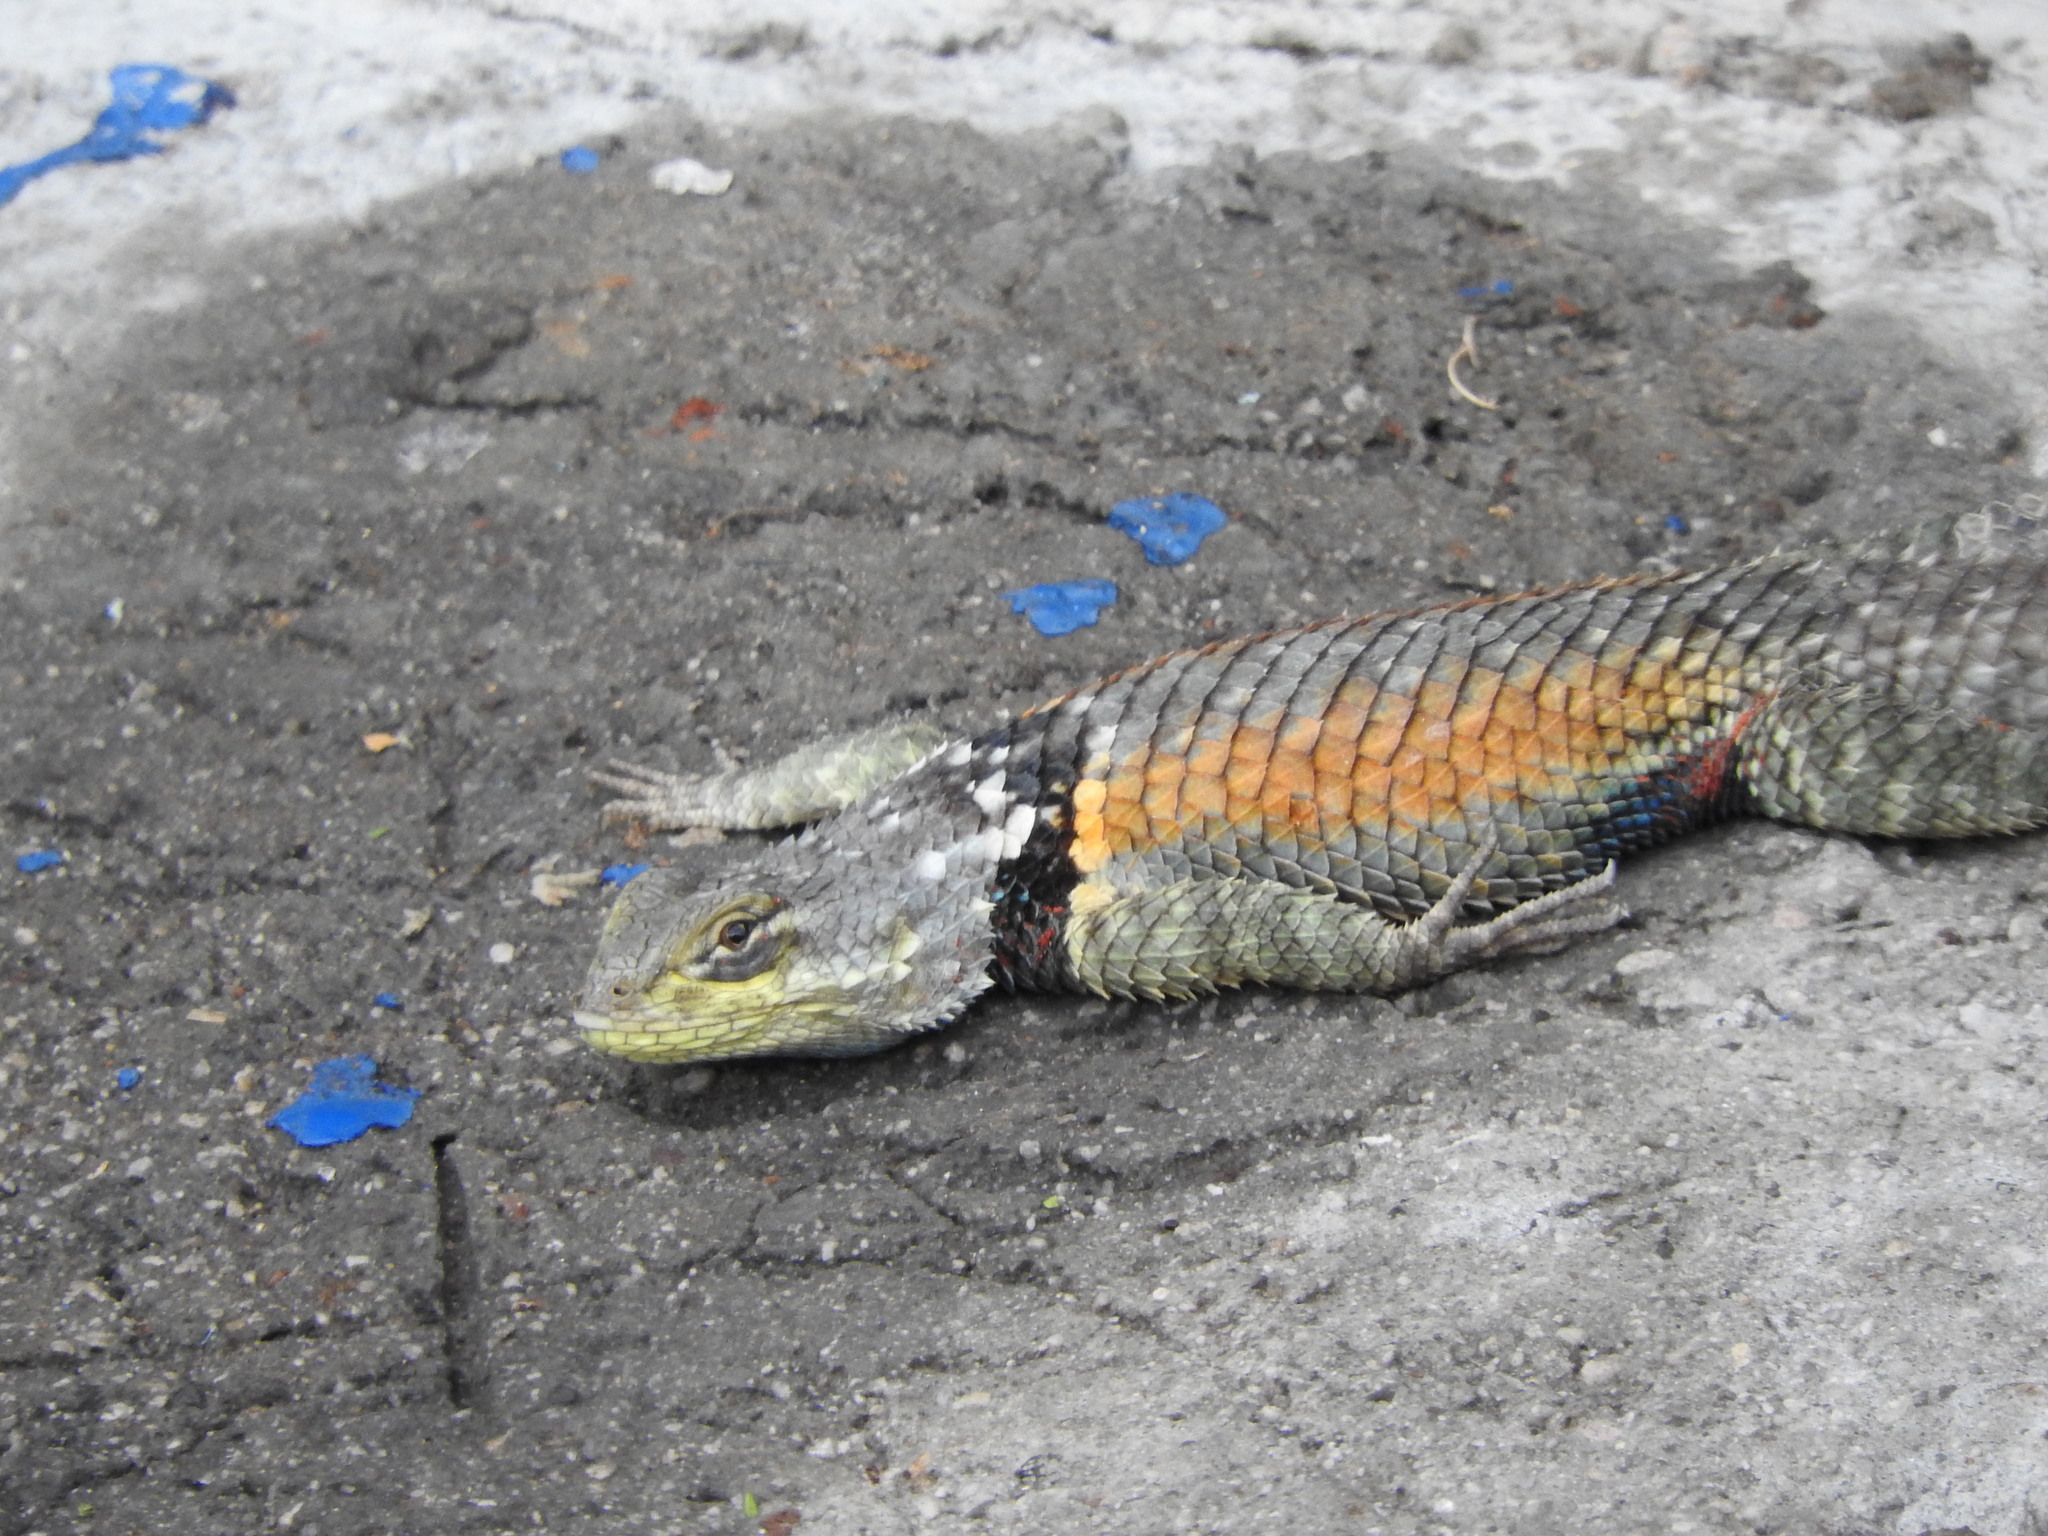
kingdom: Animalia
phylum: Chordata
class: Squamata
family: Phrynosomatidae
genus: Sceloporus
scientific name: Sceloporus torquatus
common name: Central plateau torquate lizard [melanogaster]
